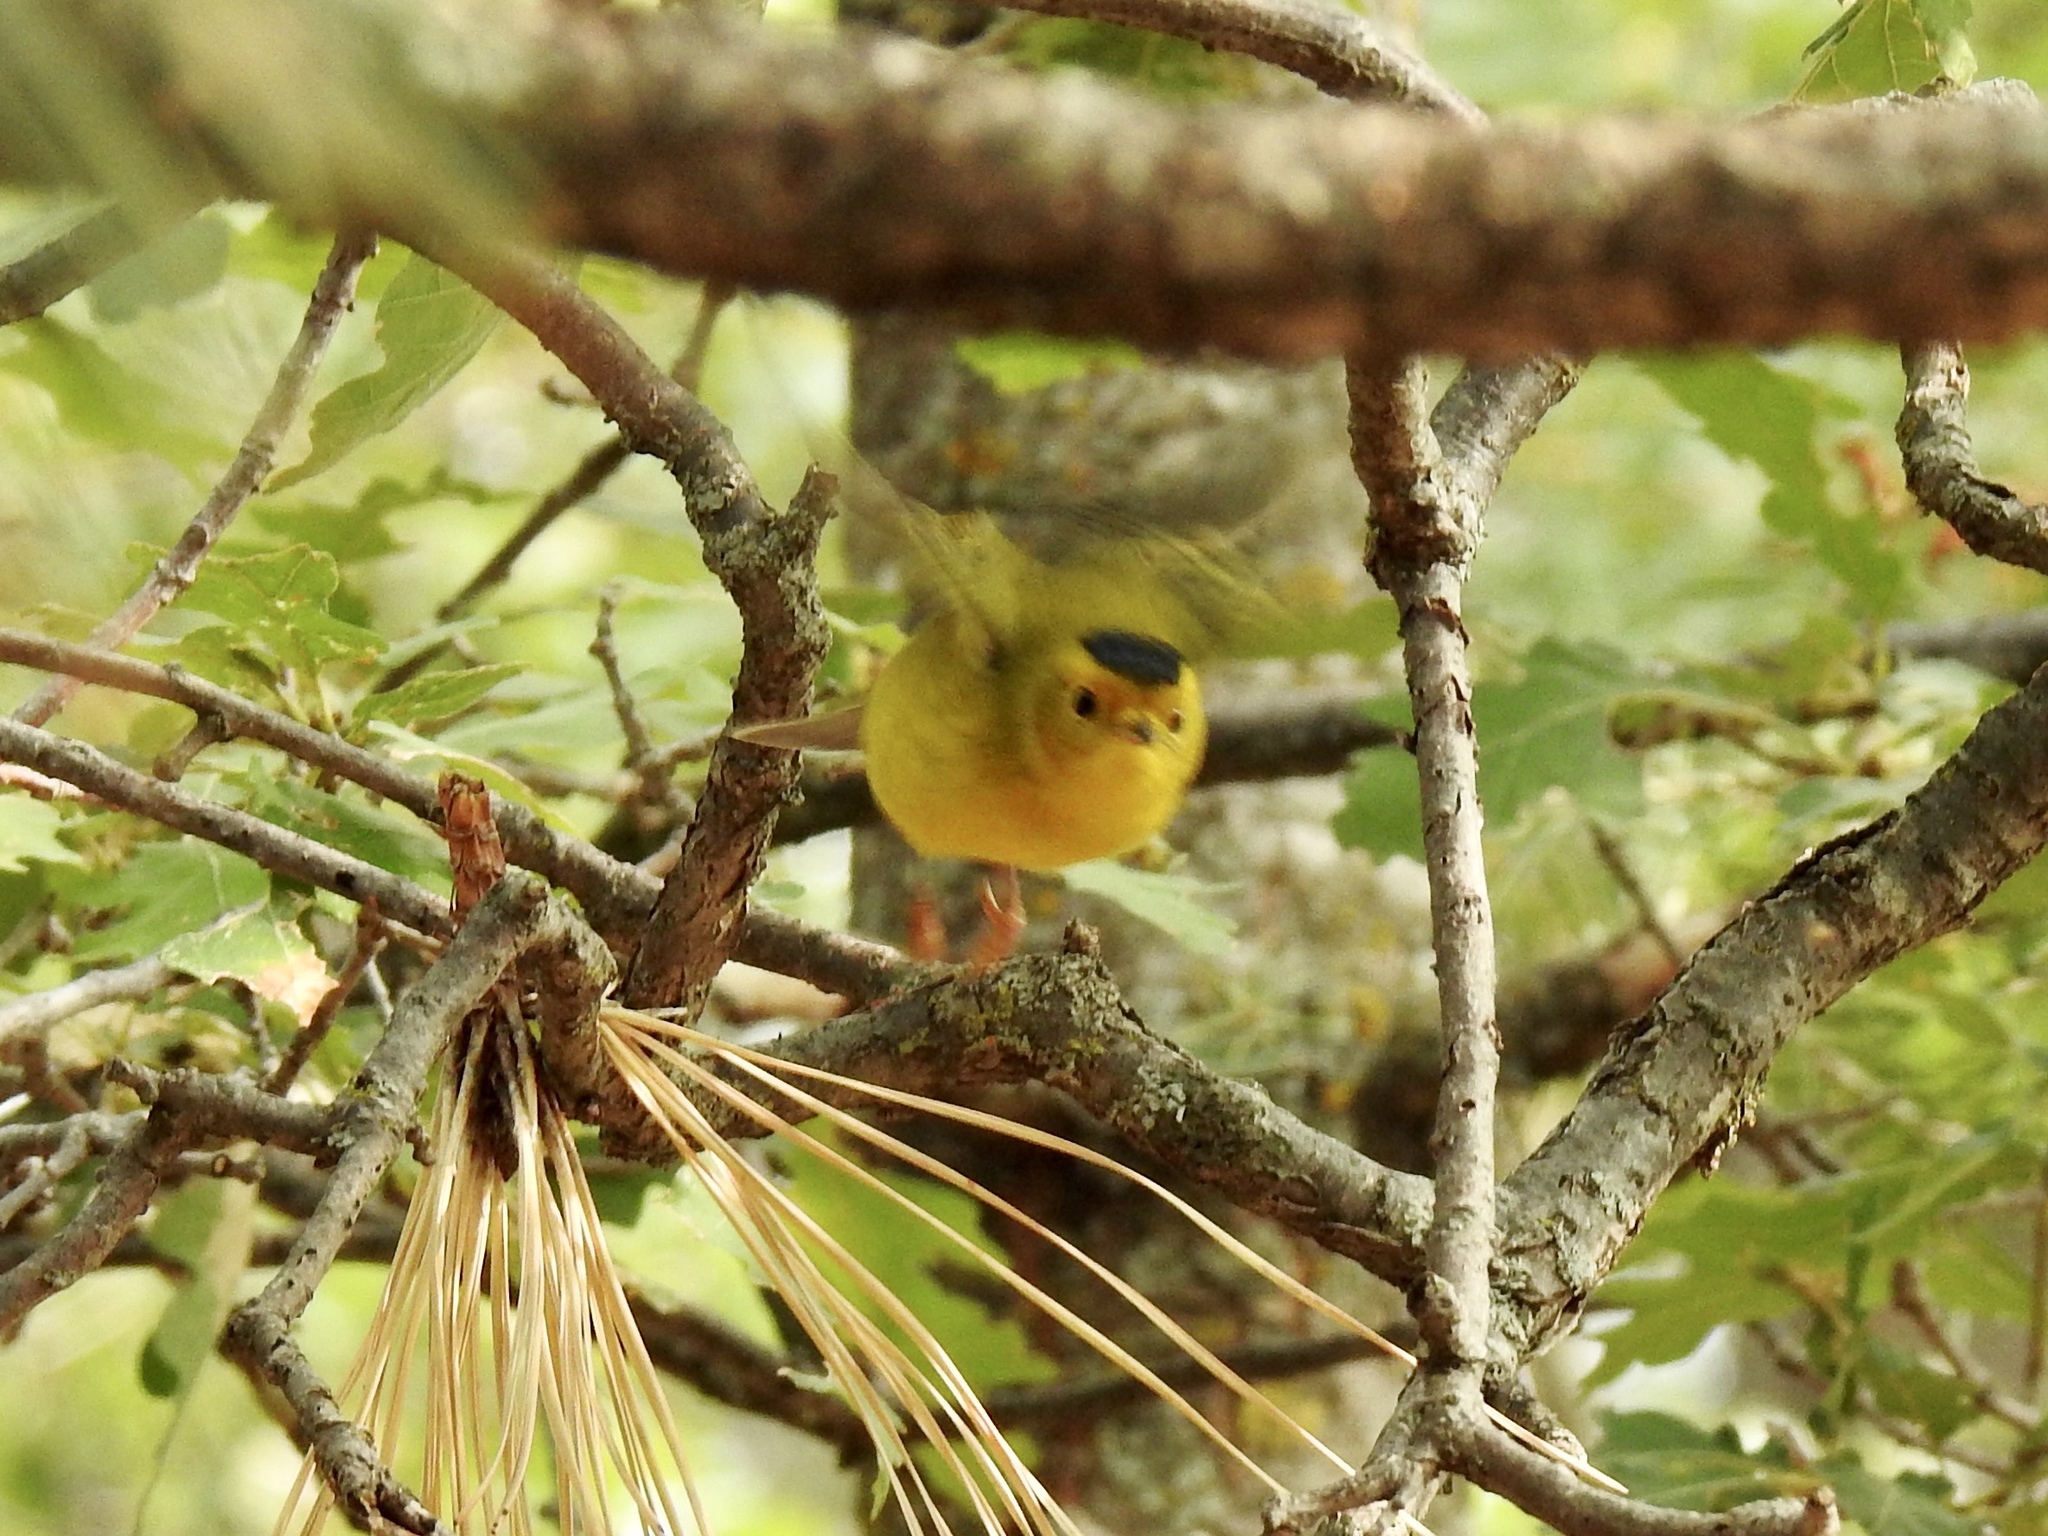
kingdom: Animalia
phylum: Chordata
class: Aves
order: Passeriformes
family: Parulidae
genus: Cardellina
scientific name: Cardellina pusilla
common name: Wilson's warbler
